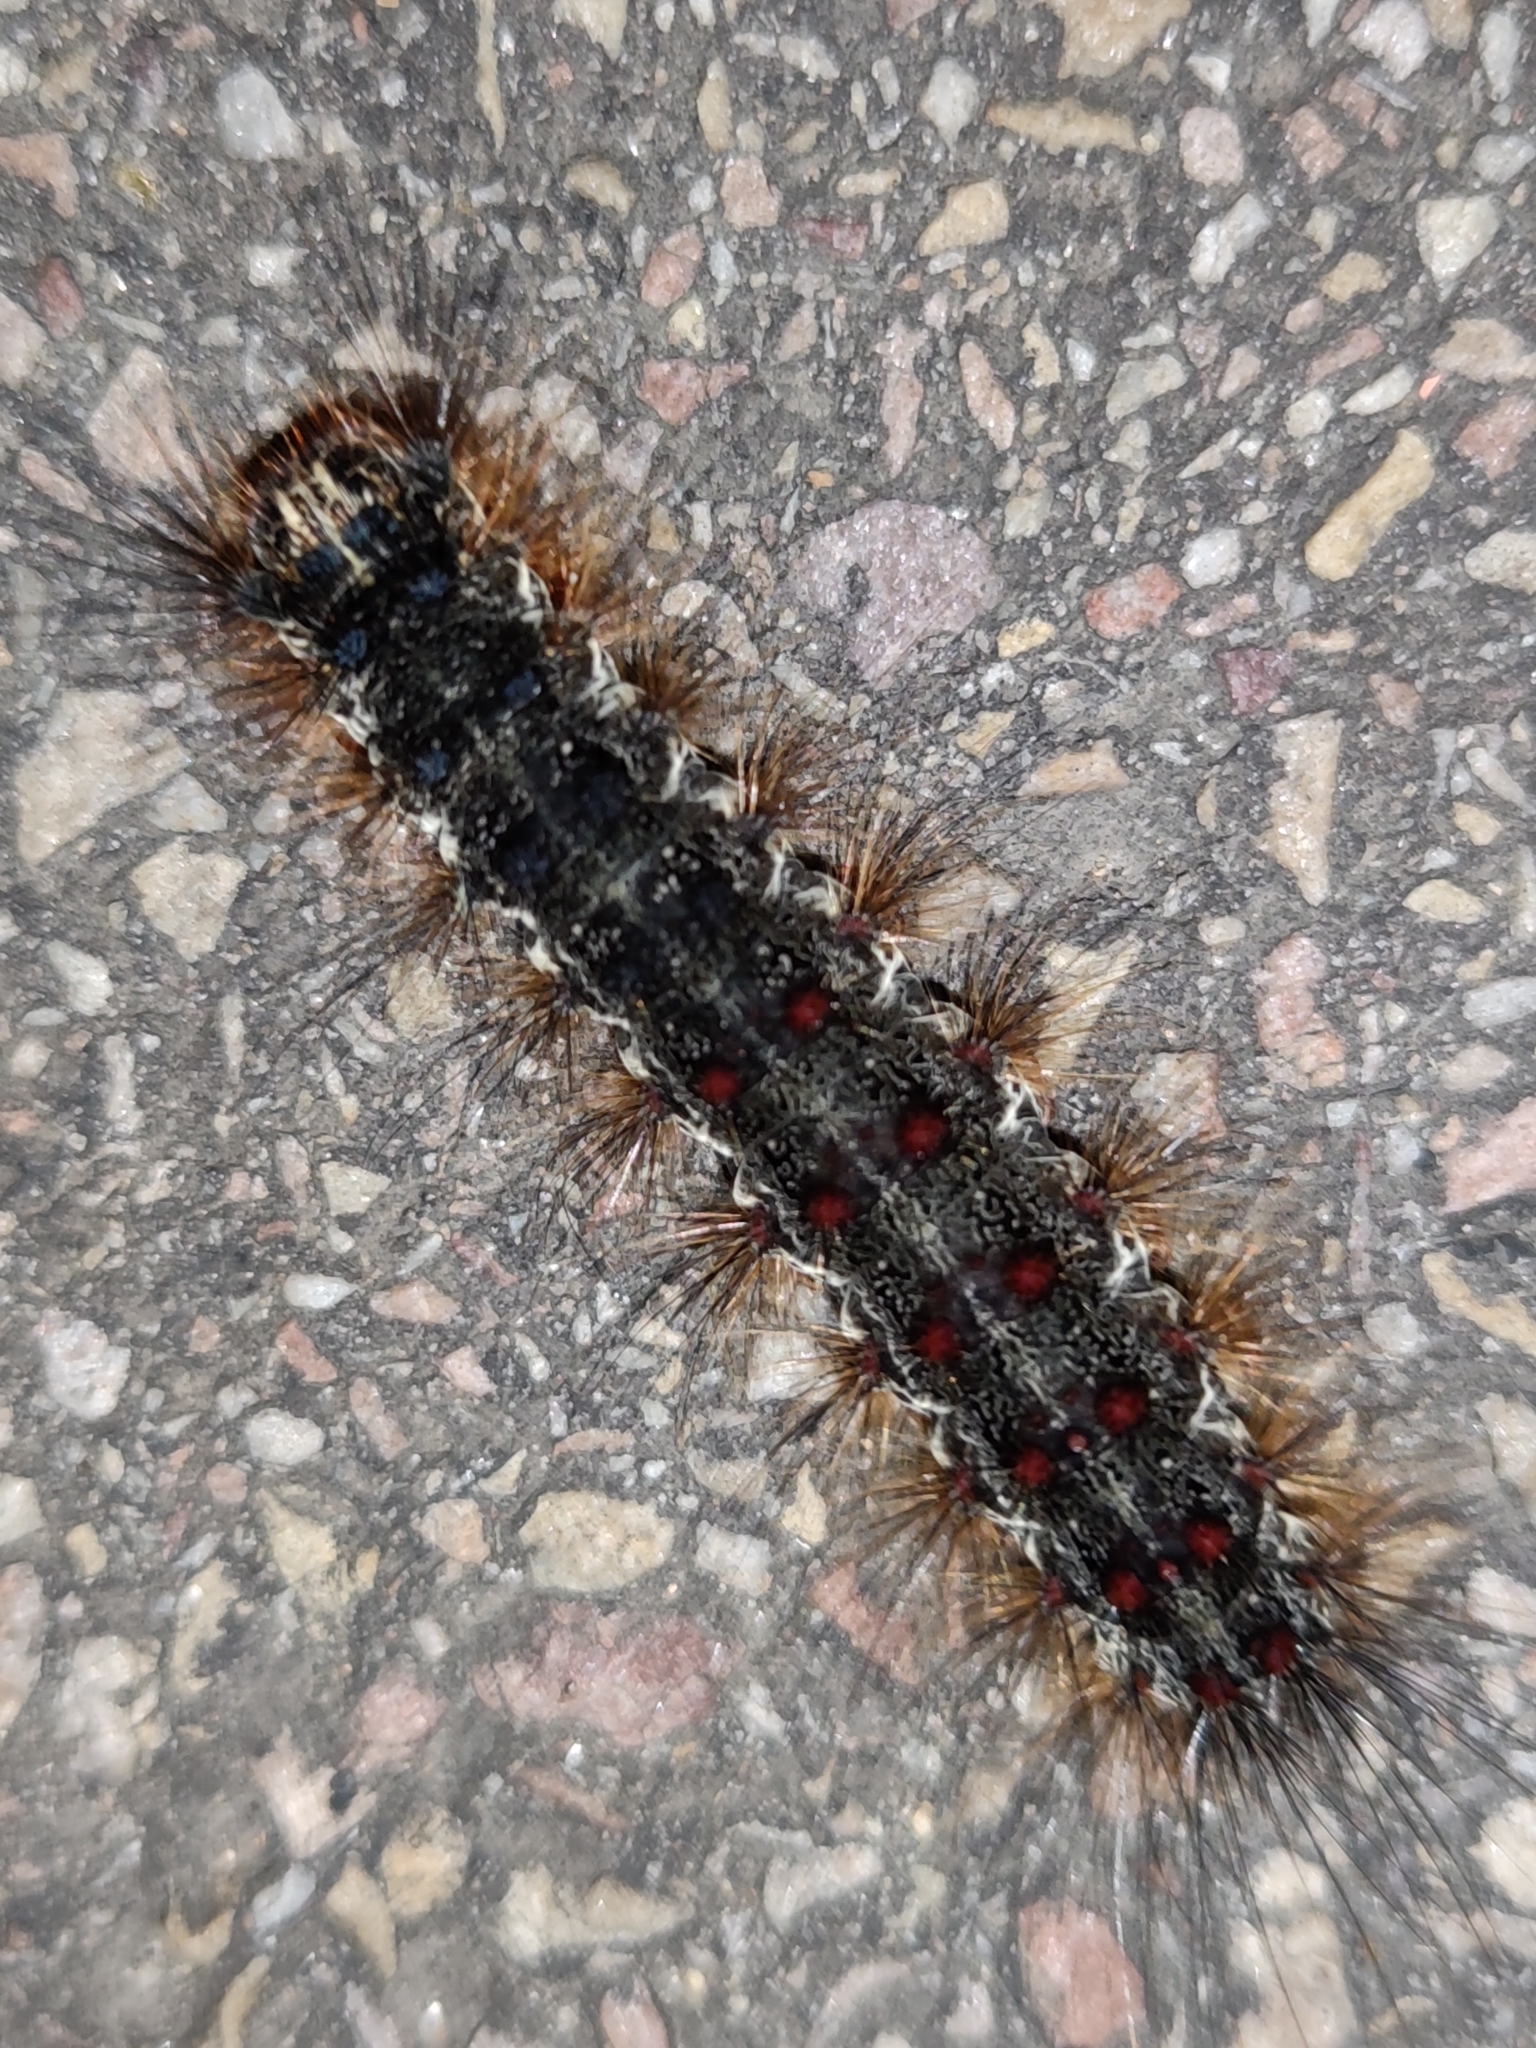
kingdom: Animalia
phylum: Arthropoda
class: Insecta
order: Lepidoptera
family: Erebidae
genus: Lymantria
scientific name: Lymantria dispar
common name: Gypsy moth
